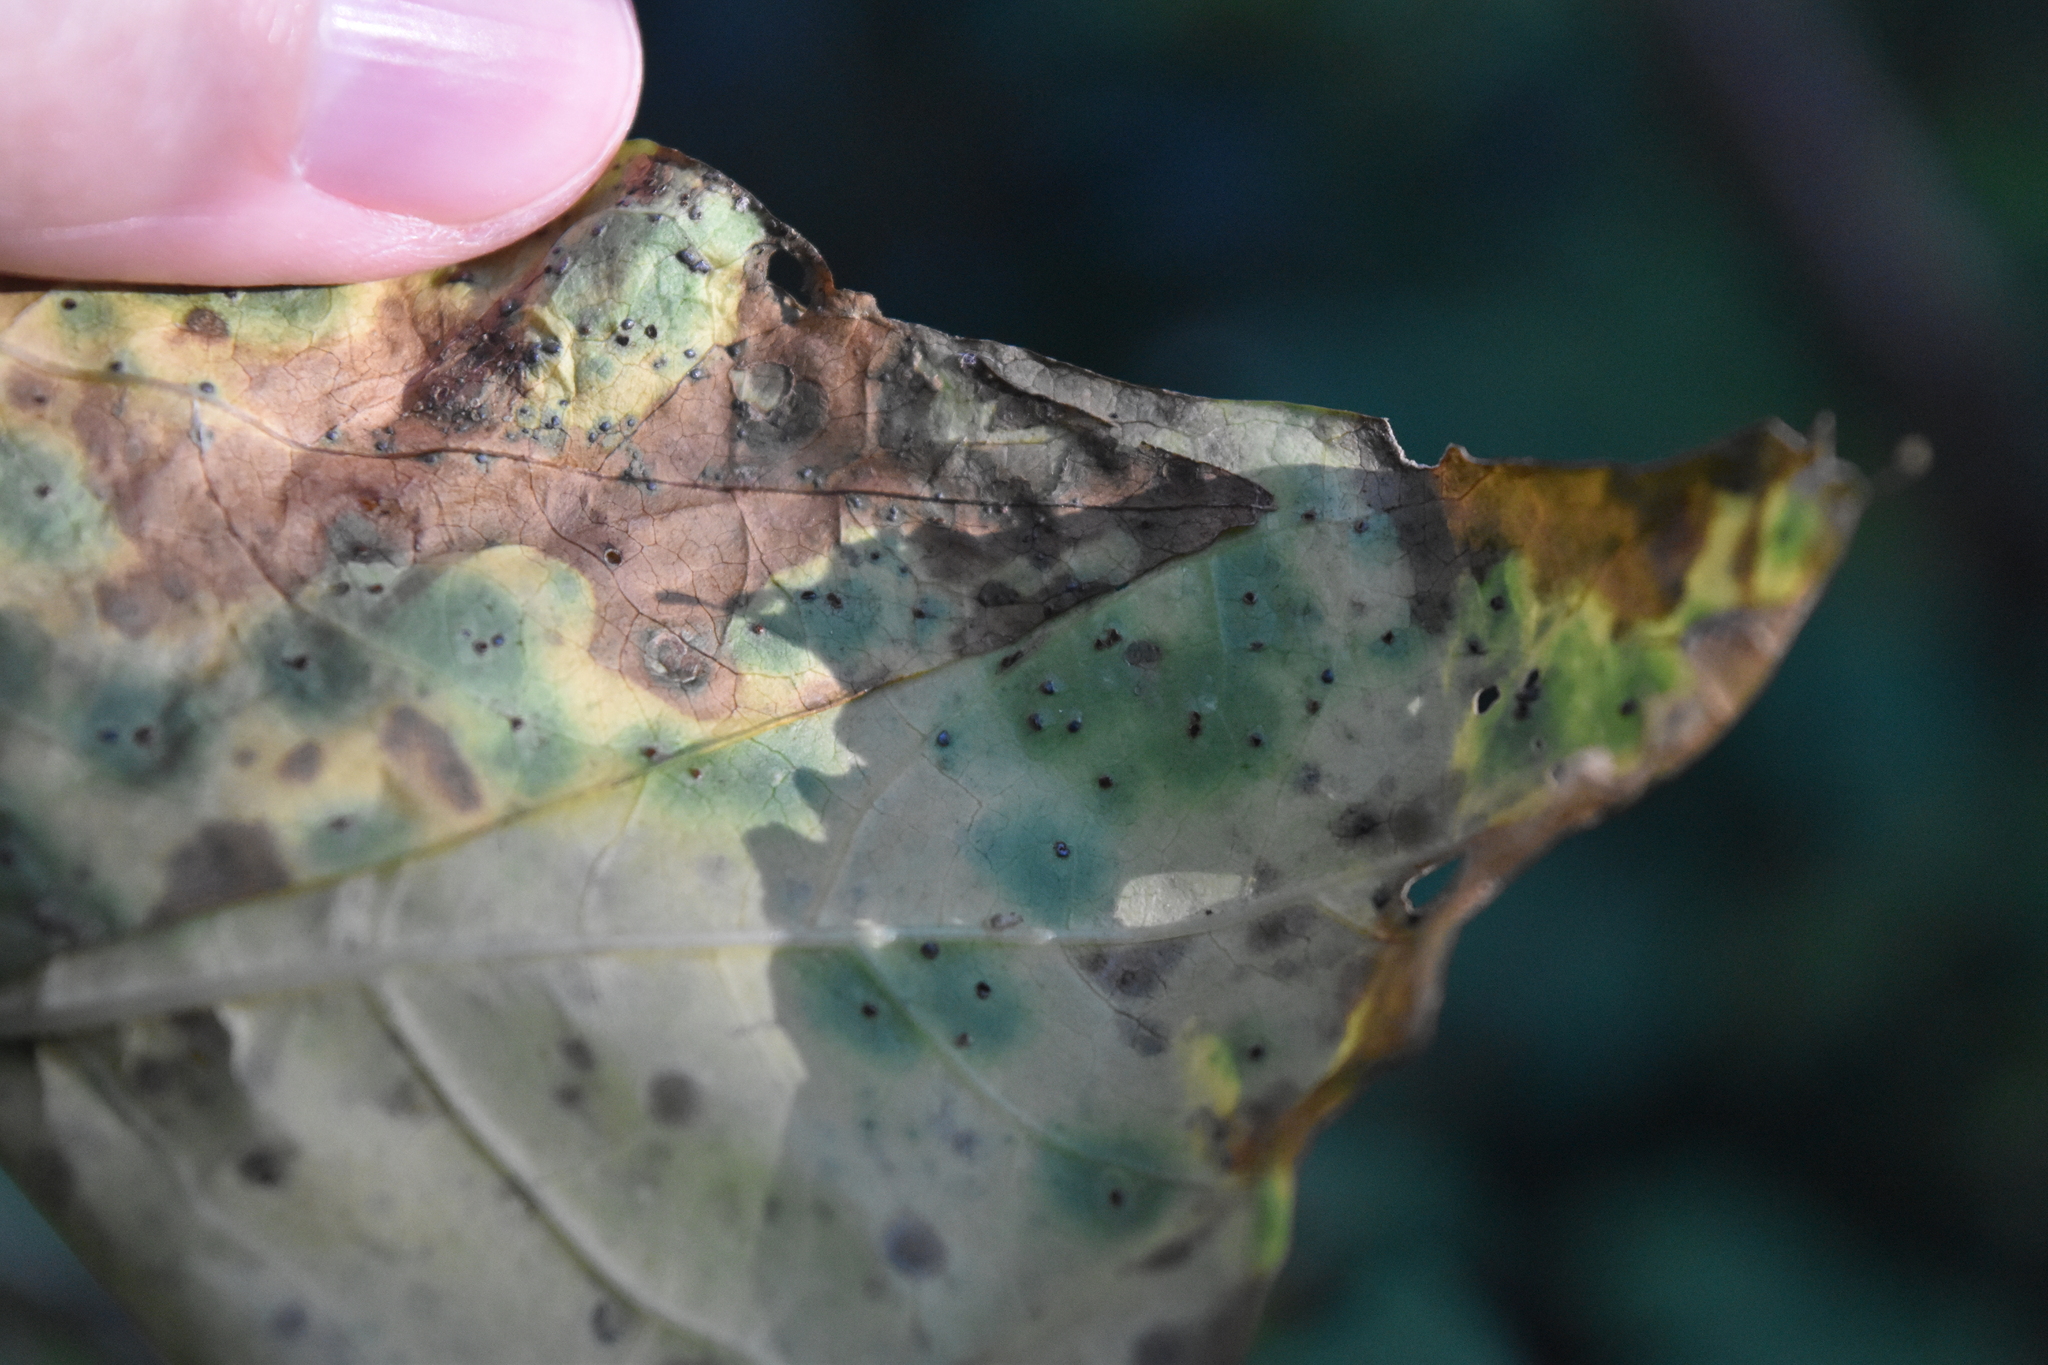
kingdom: Fungi
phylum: Basidiomycota
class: Pucciniomycetes
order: Pucciniales
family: Pucciniaceae
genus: Puccinia
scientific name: Puccinia convolvuli
